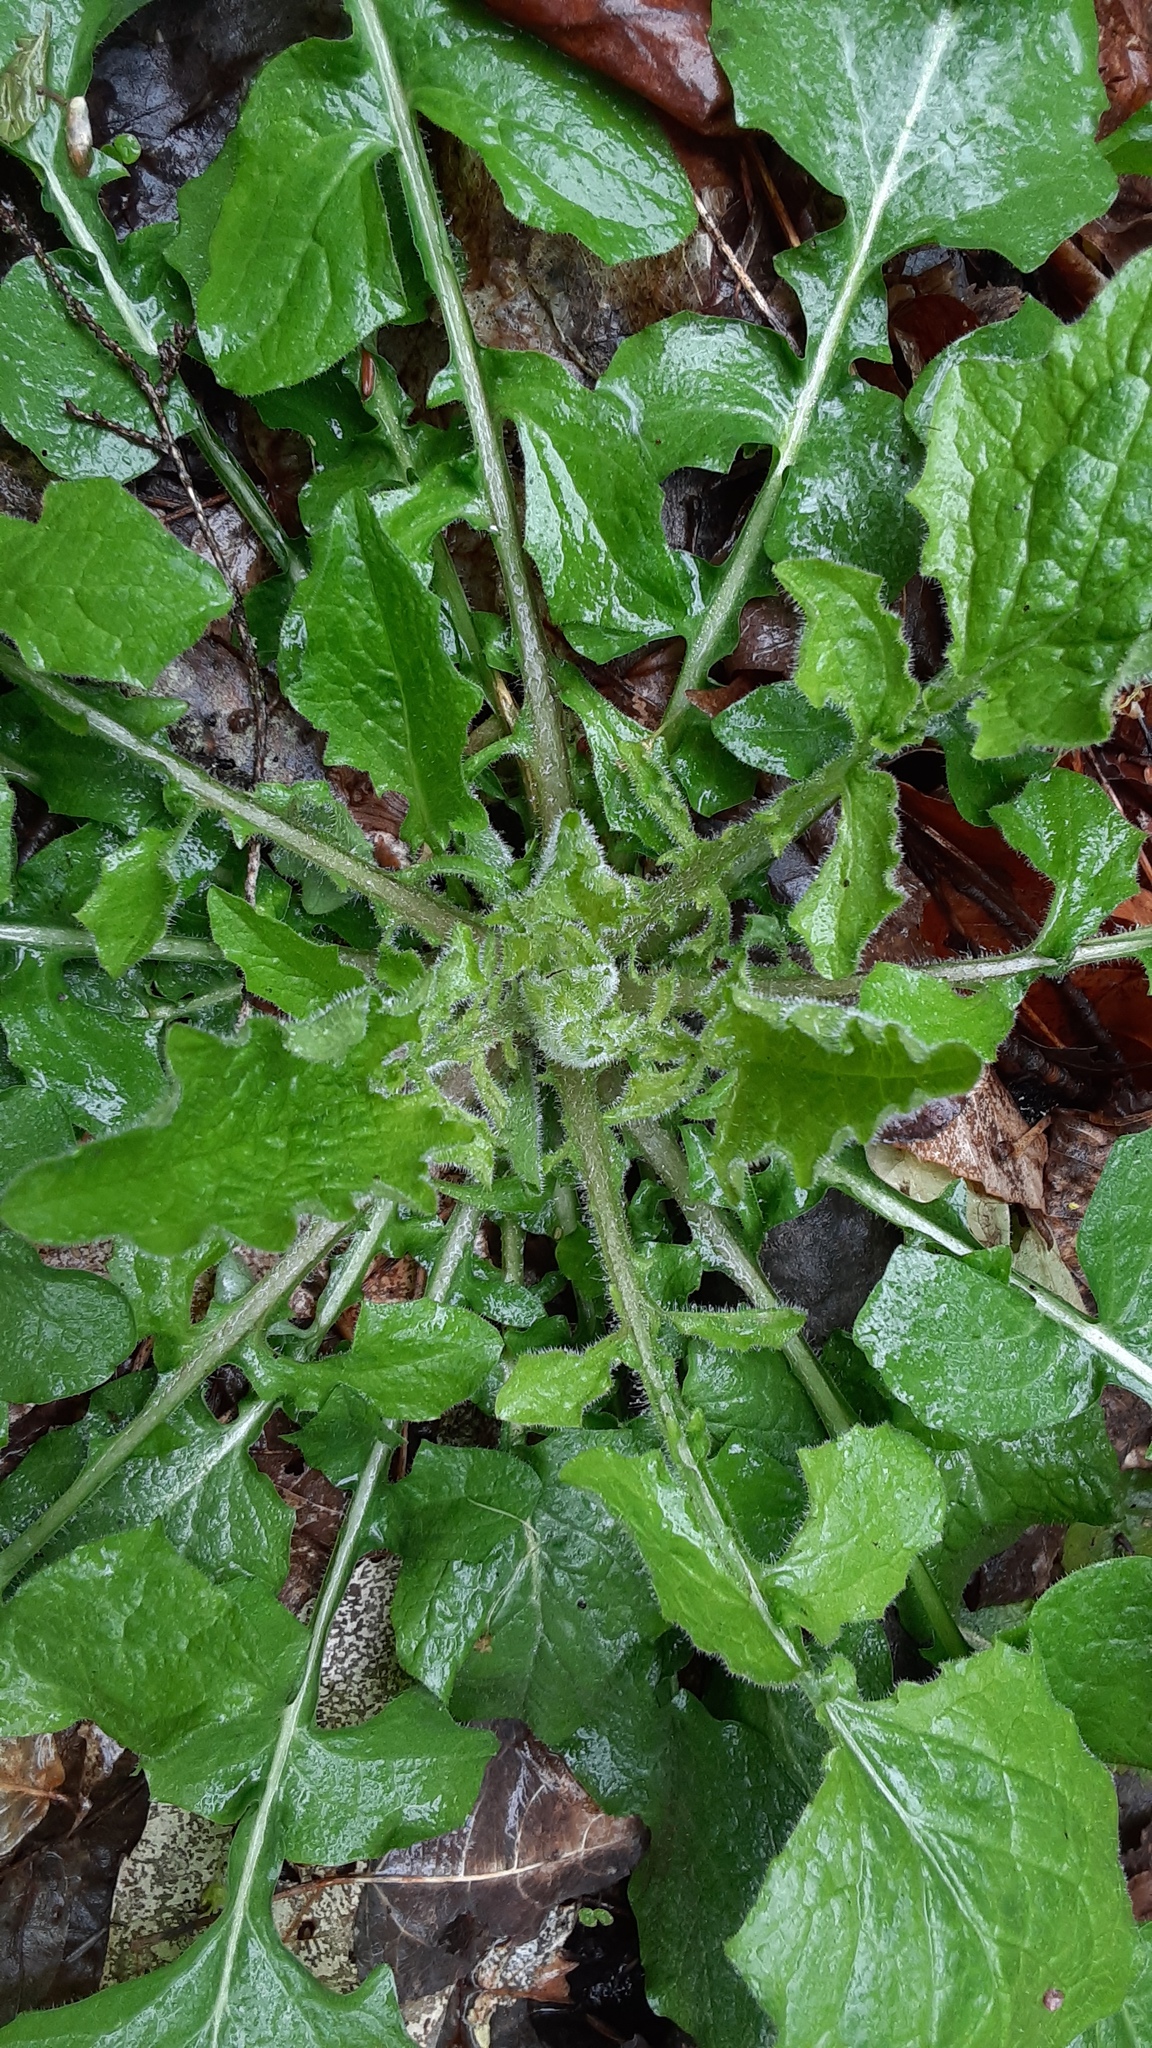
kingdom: Plantae
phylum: Tracheophyta
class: Magnoliopsida
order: Asterales
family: Asteraceae
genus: Lapsana
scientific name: Lapsana communis
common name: Nipplewort
